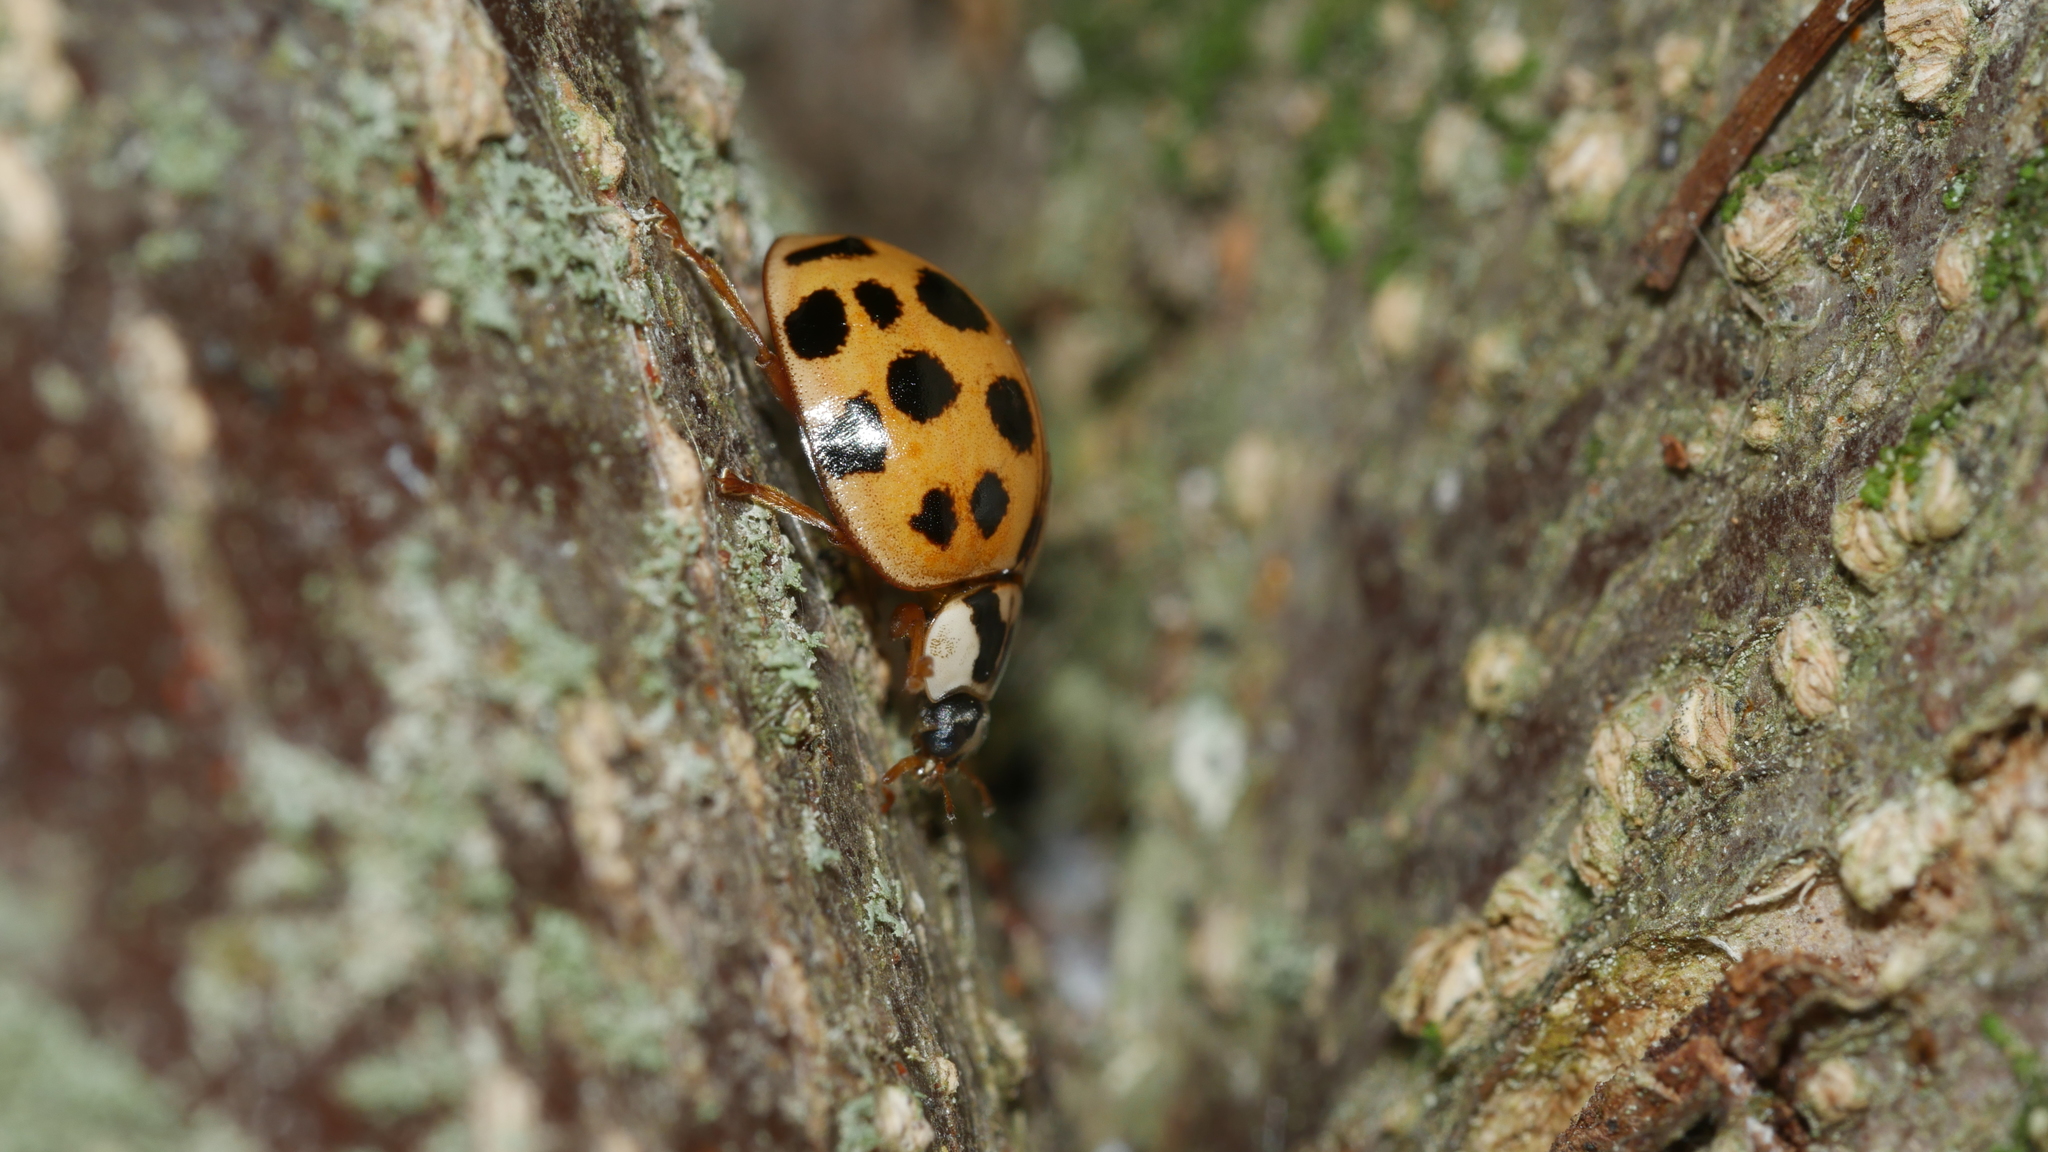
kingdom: Animalia
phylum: Arthropoda
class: Insecta
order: Coleoptera
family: Coccinellidae
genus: Harmonia
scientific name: Harmonia axyridis
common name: Harlequin ladybird
